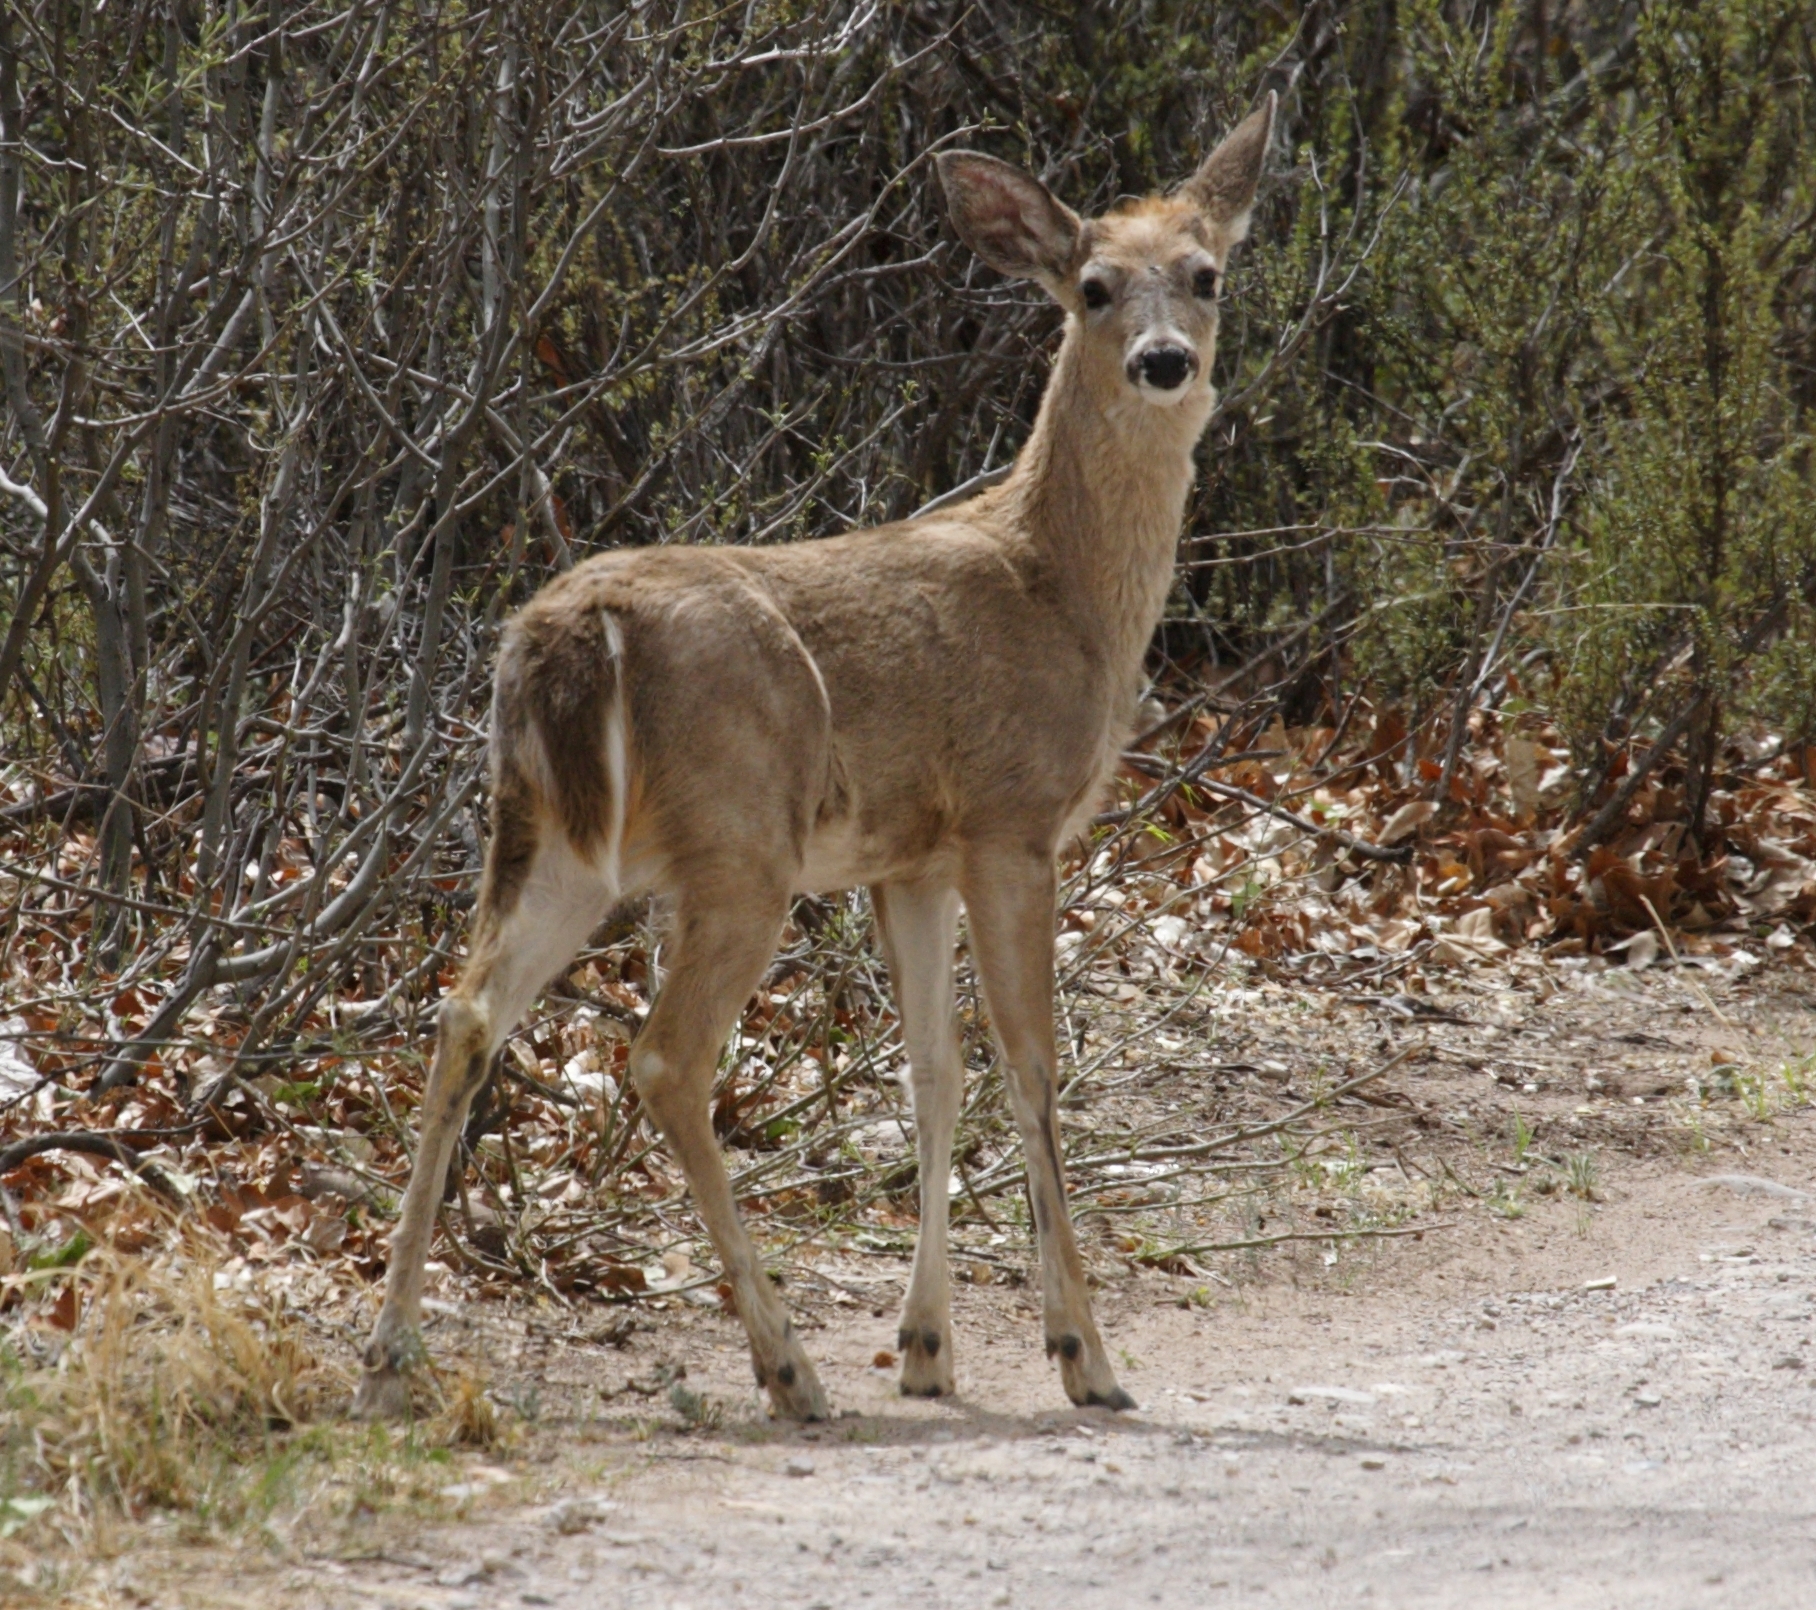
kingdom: Animalia
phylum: Chordata
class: Mammalia
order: Artiodactyla
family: Cervidae
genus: Odocoileus
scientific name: Odocoileus virginianus
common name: White-tailed deer
